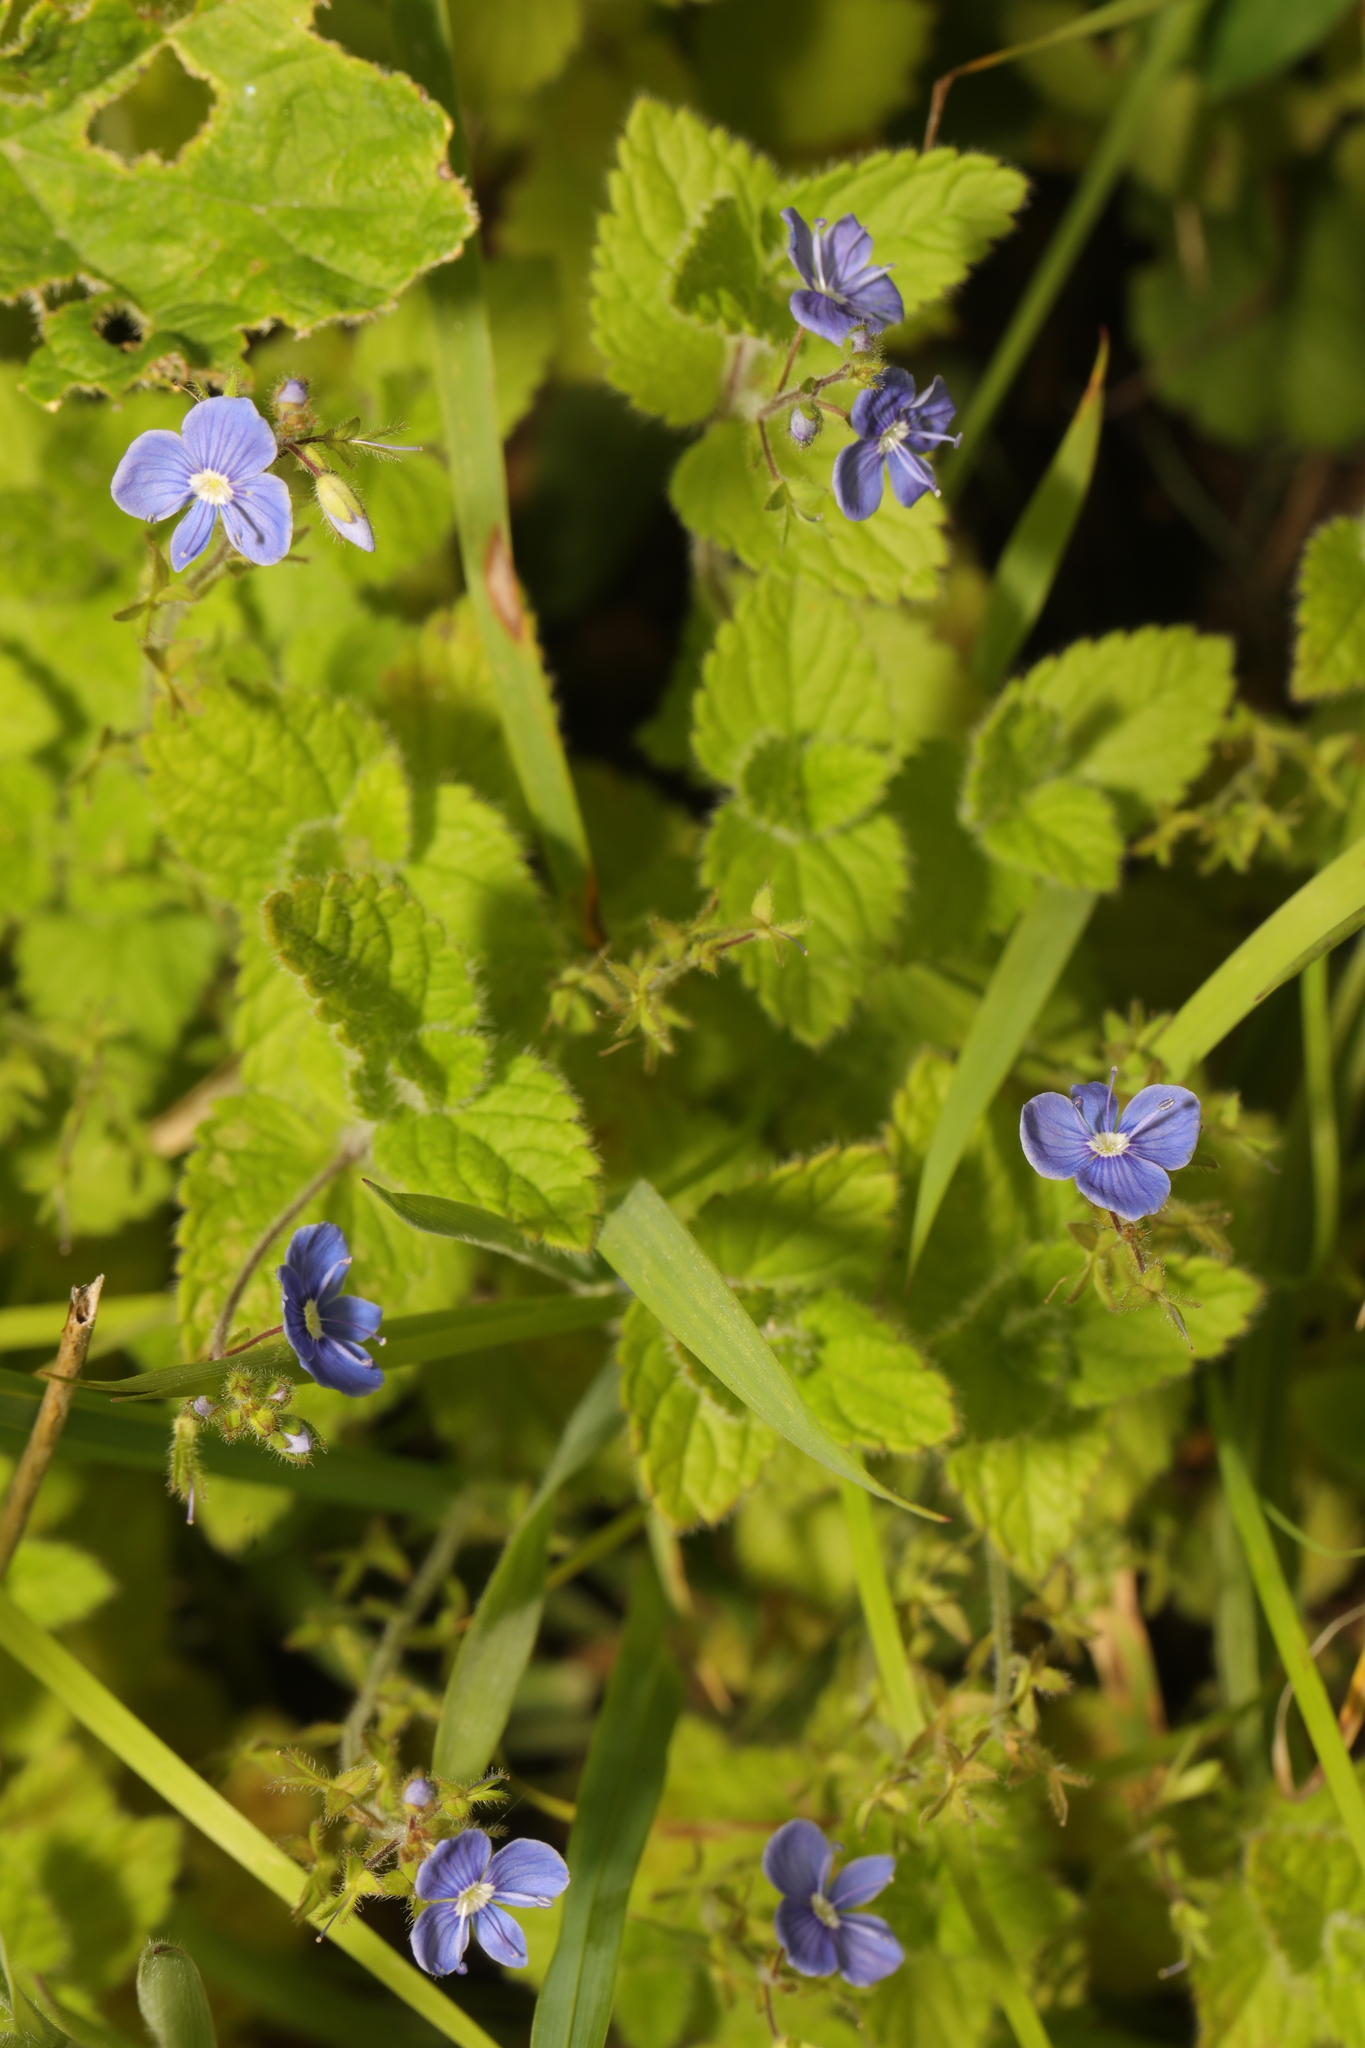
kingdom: Plantae
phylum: Tracheophyta
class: Magnoliopsida
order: Lamiales
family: Plantaginaceae
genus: Veronica
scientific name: Veronica chamaedrys
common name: Germander speedwell
